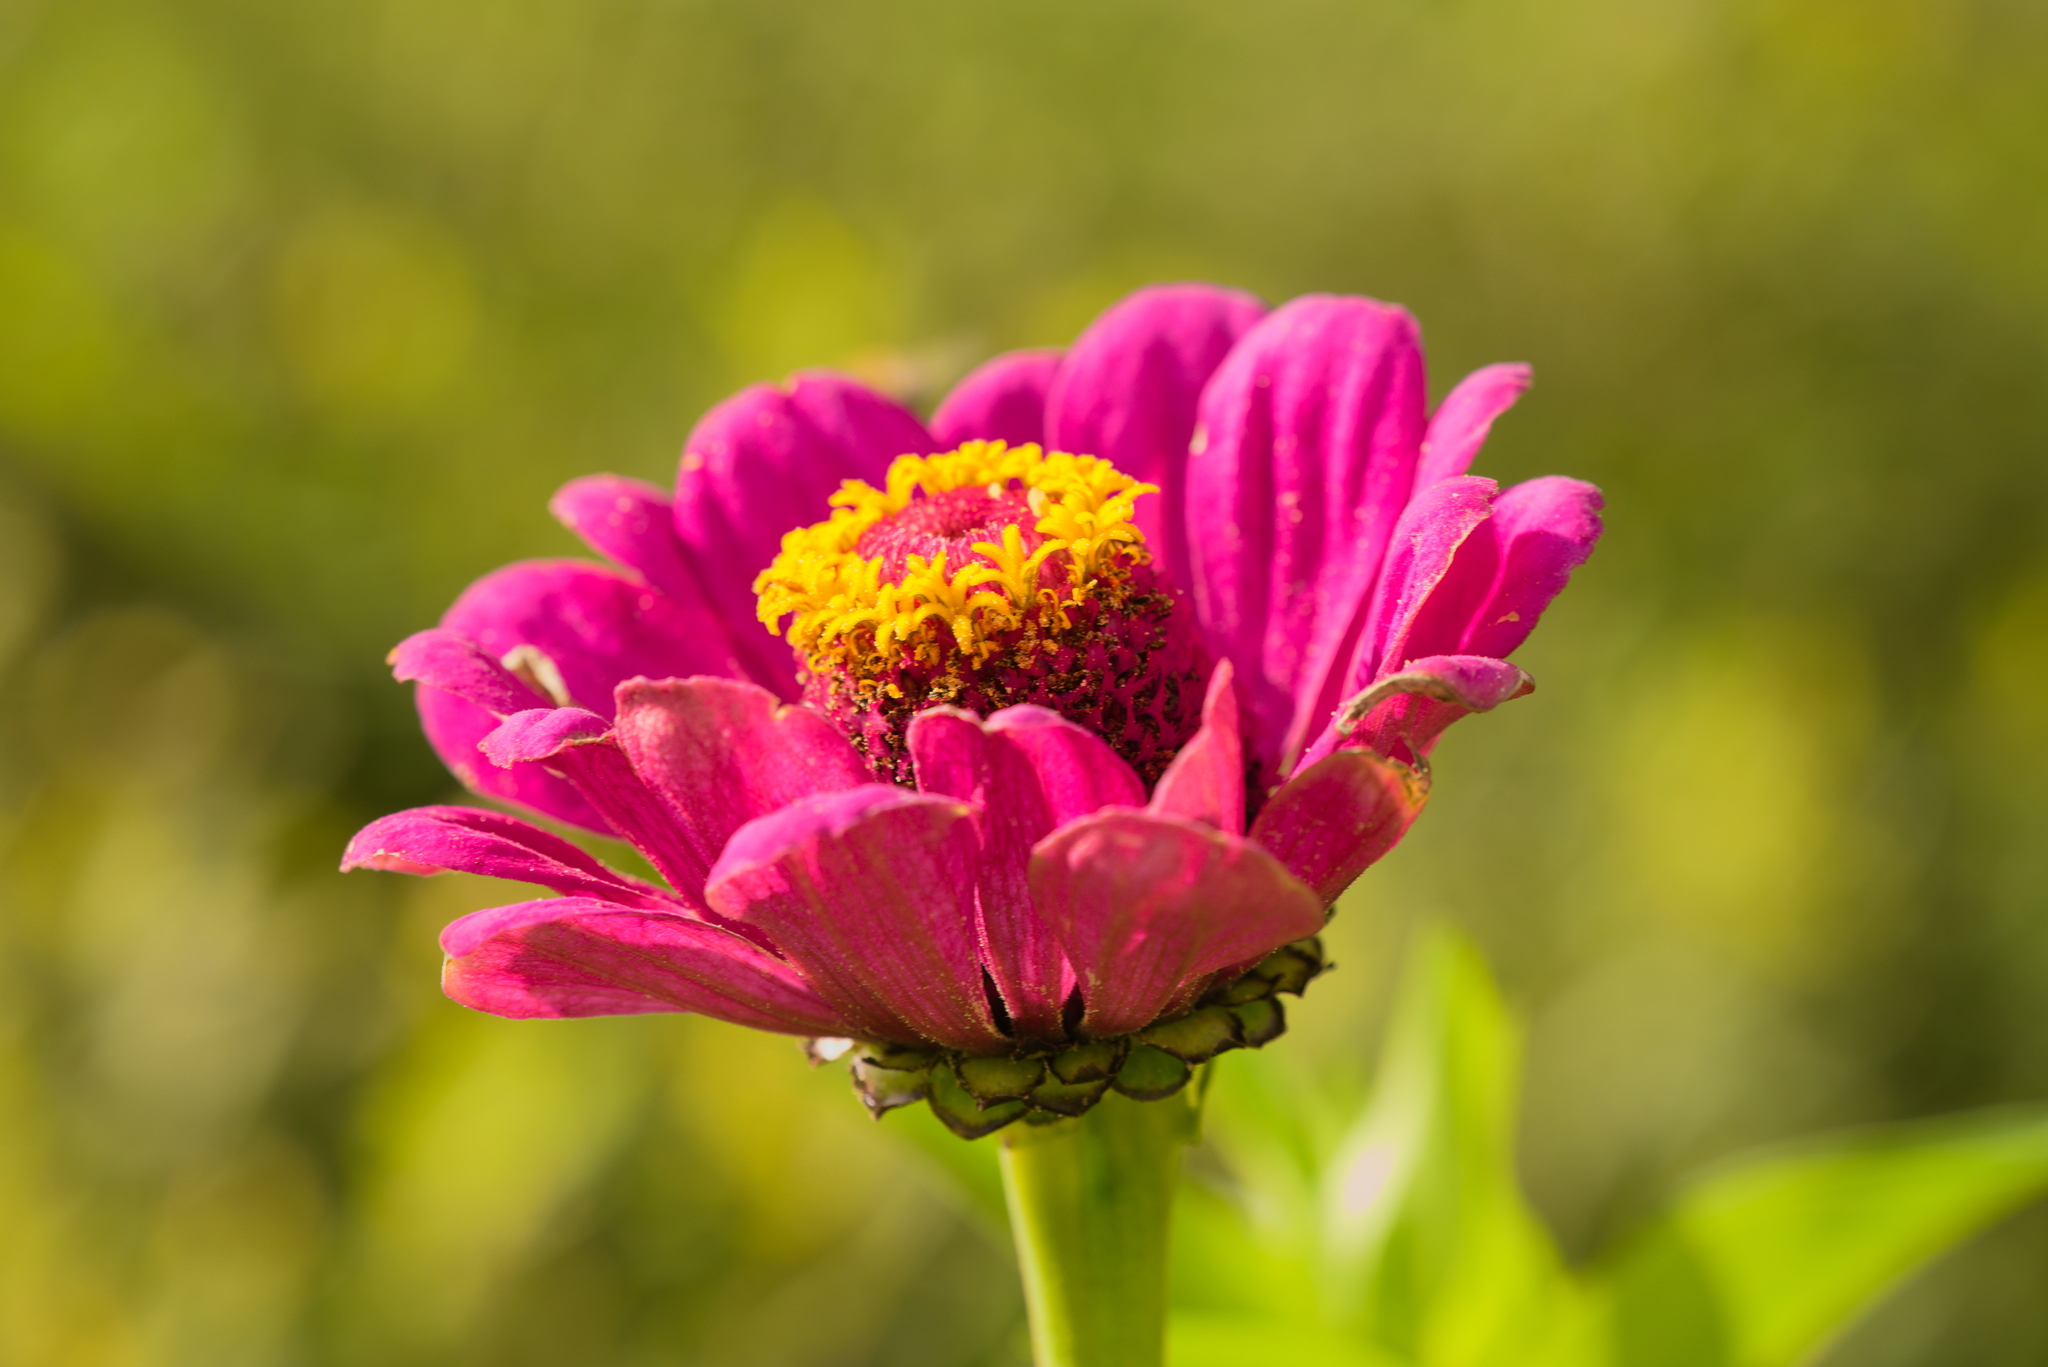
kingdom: Plantae
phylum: Tracheophyta
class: Magnoliopsida
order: Asterales
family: Asteraceae
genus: Zinnia
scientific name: Zinnia elegans
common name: Youth-and-age
